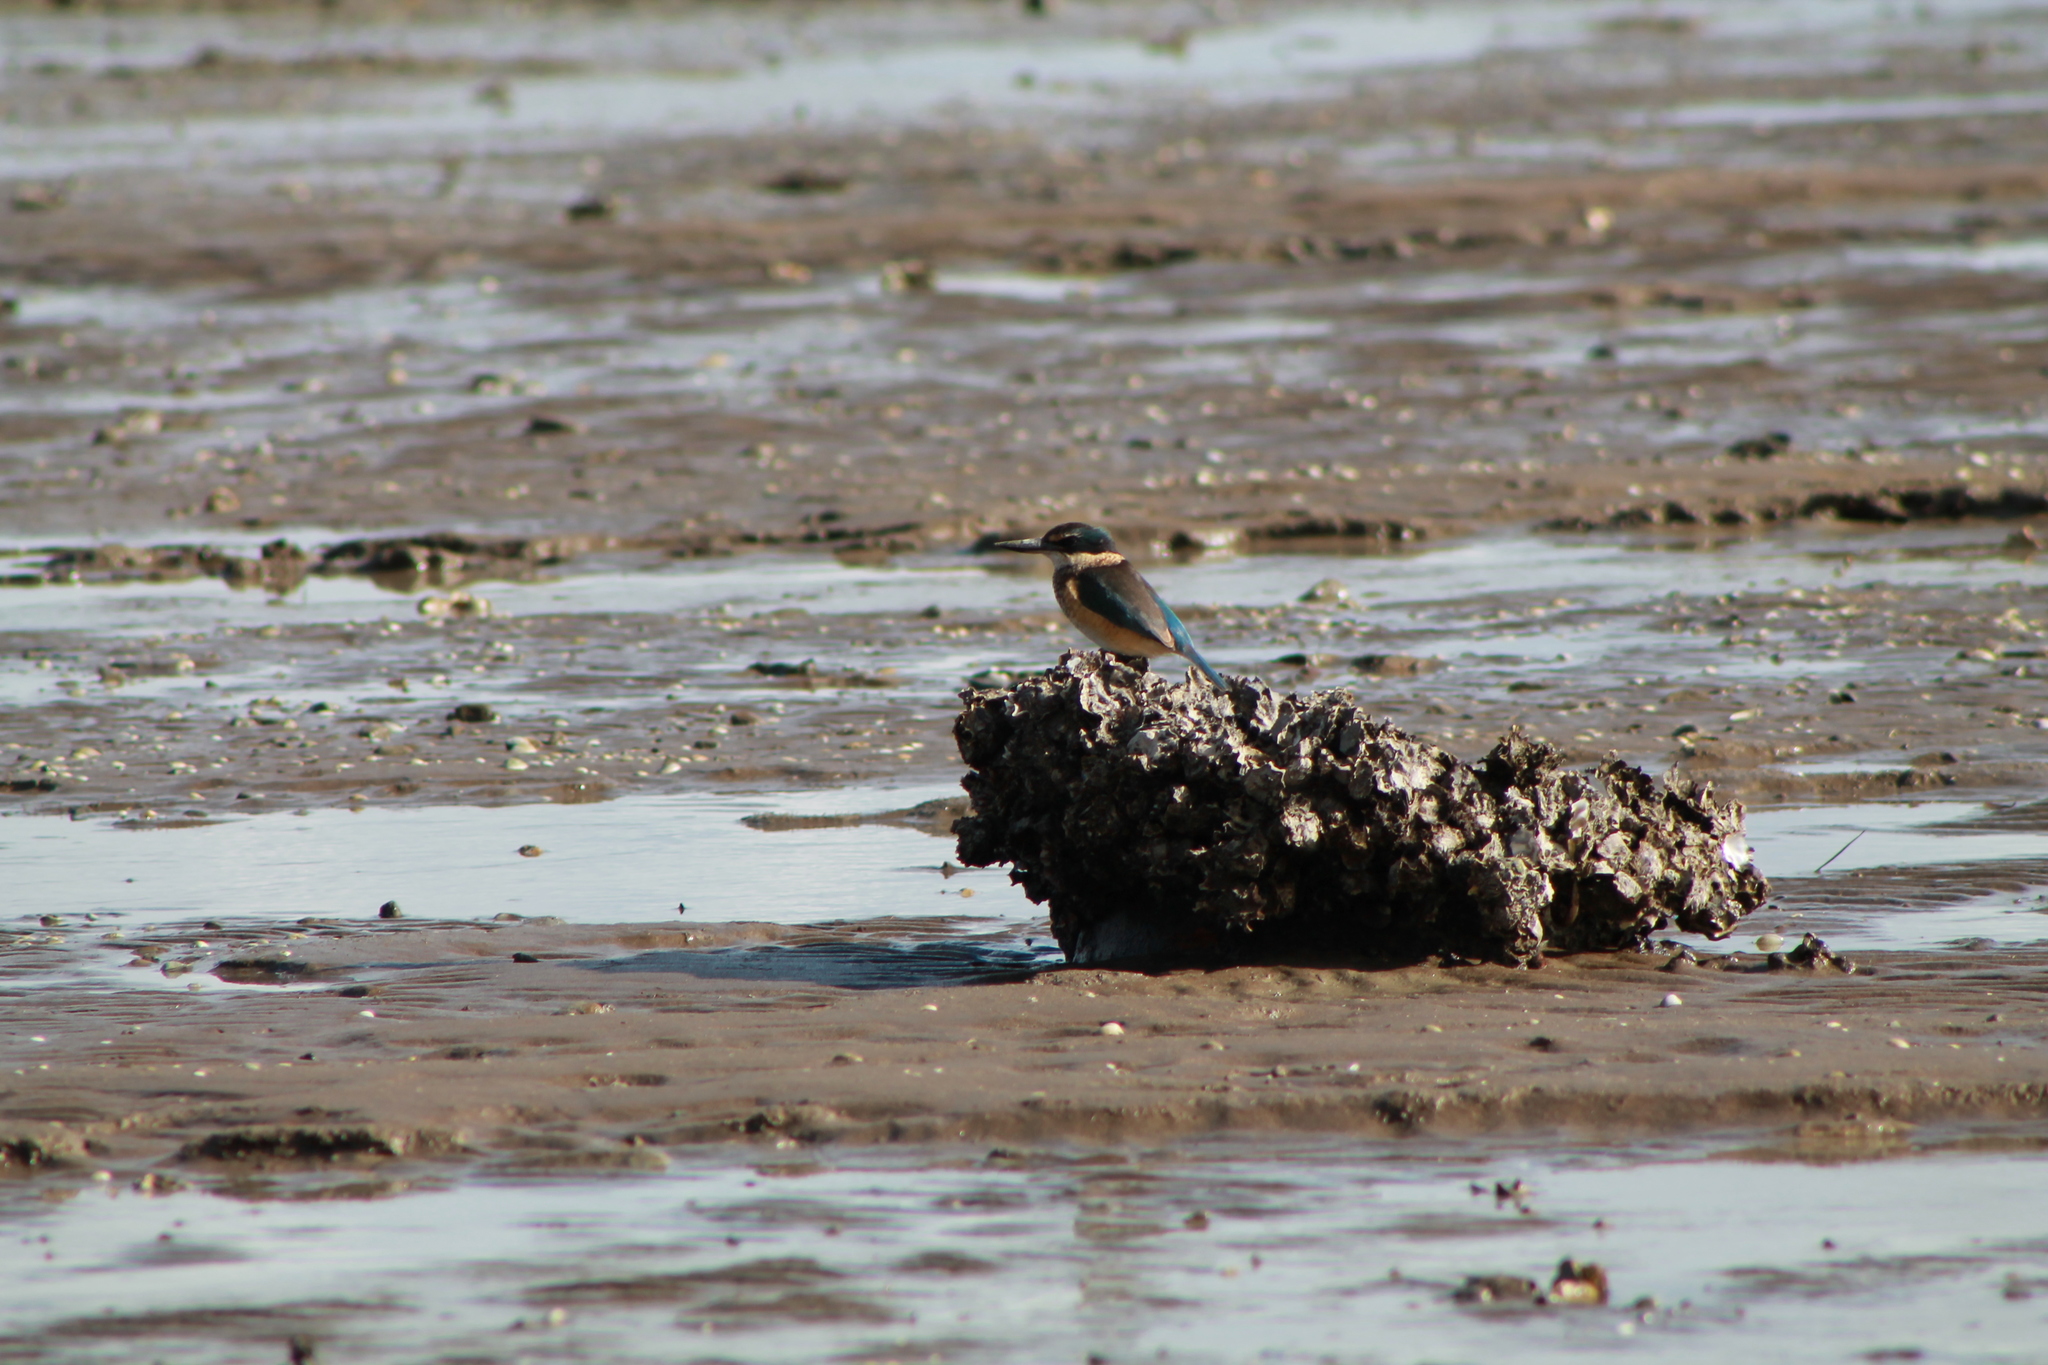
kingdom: Animalia
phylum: Chordata
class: Aves
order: Coraciiformes
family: Alcedinidae
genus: Todiramphus
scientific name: Todiramphus sanctus
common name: Sacred kingfisher
